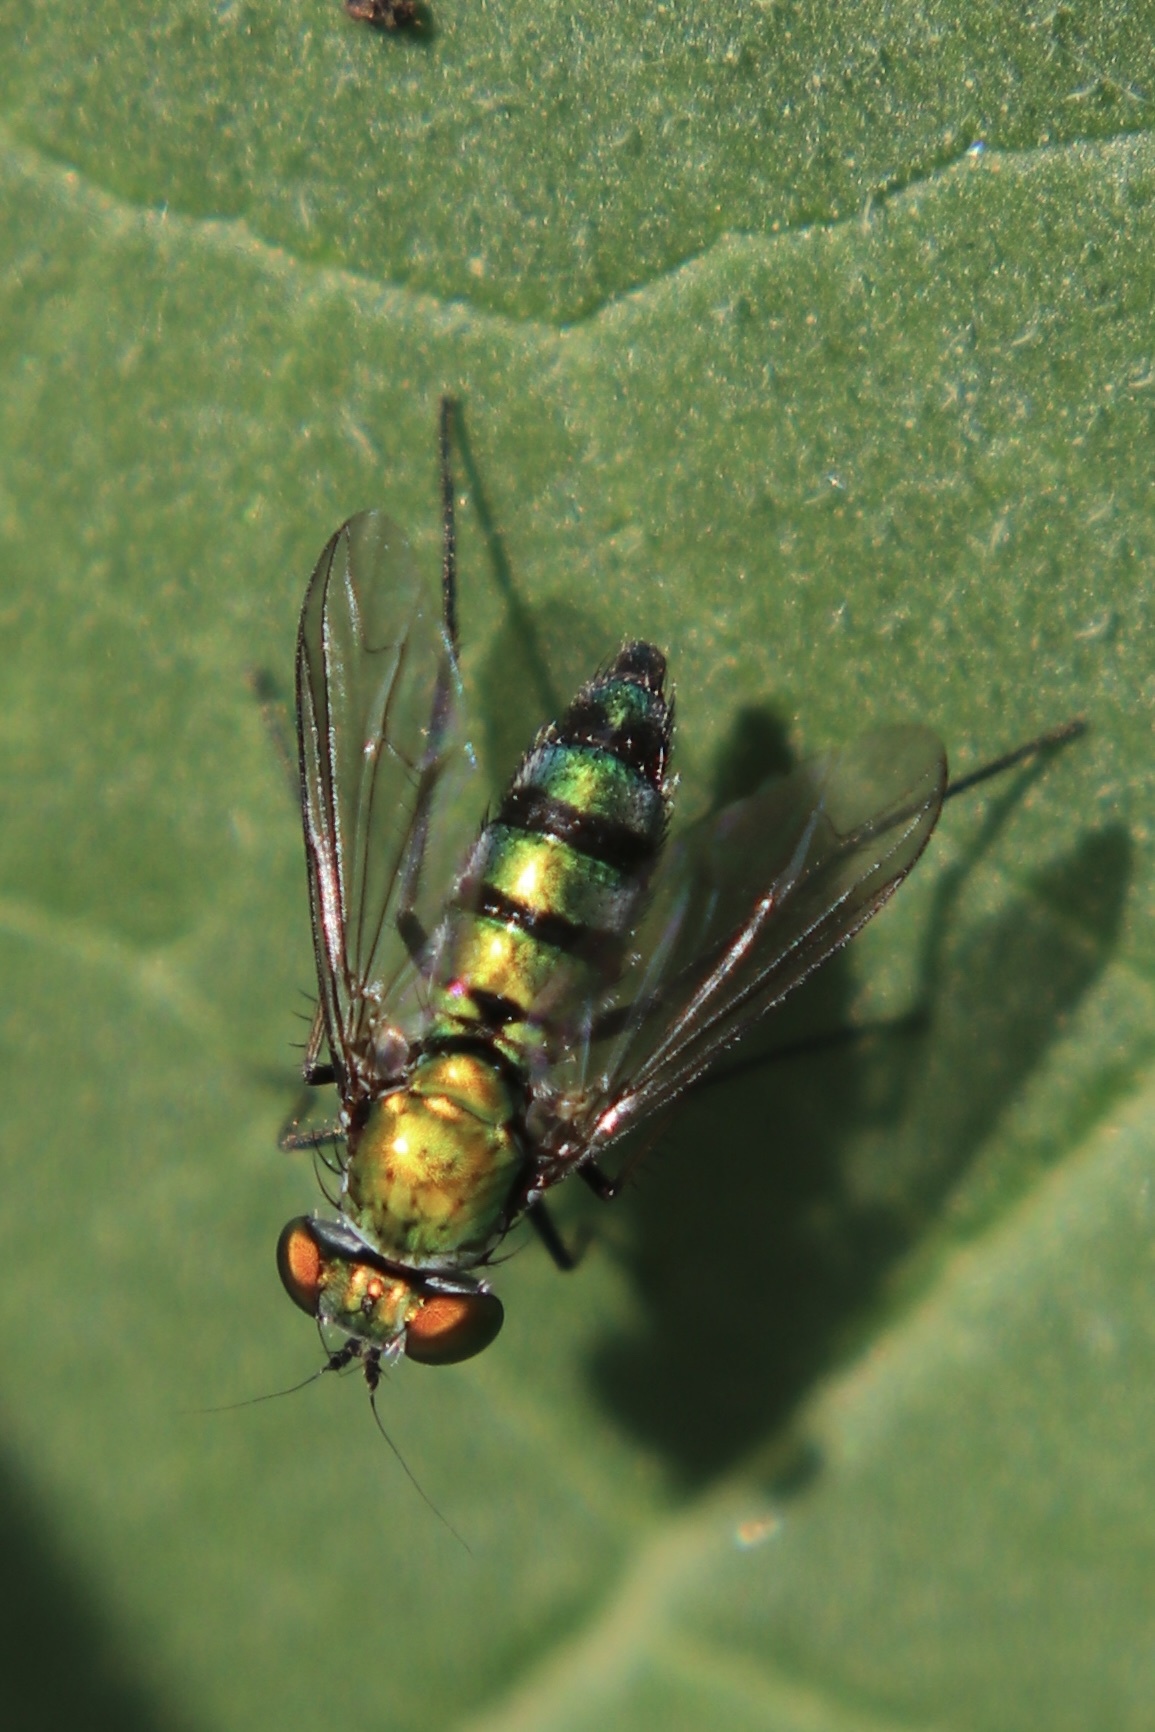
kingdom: Animalia
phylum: Arthropoda
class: Insecta
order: Diptera
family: Dolichopodidae
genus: Condylostylus
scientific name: Condylostylus longicornis
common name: Long-legged fly
